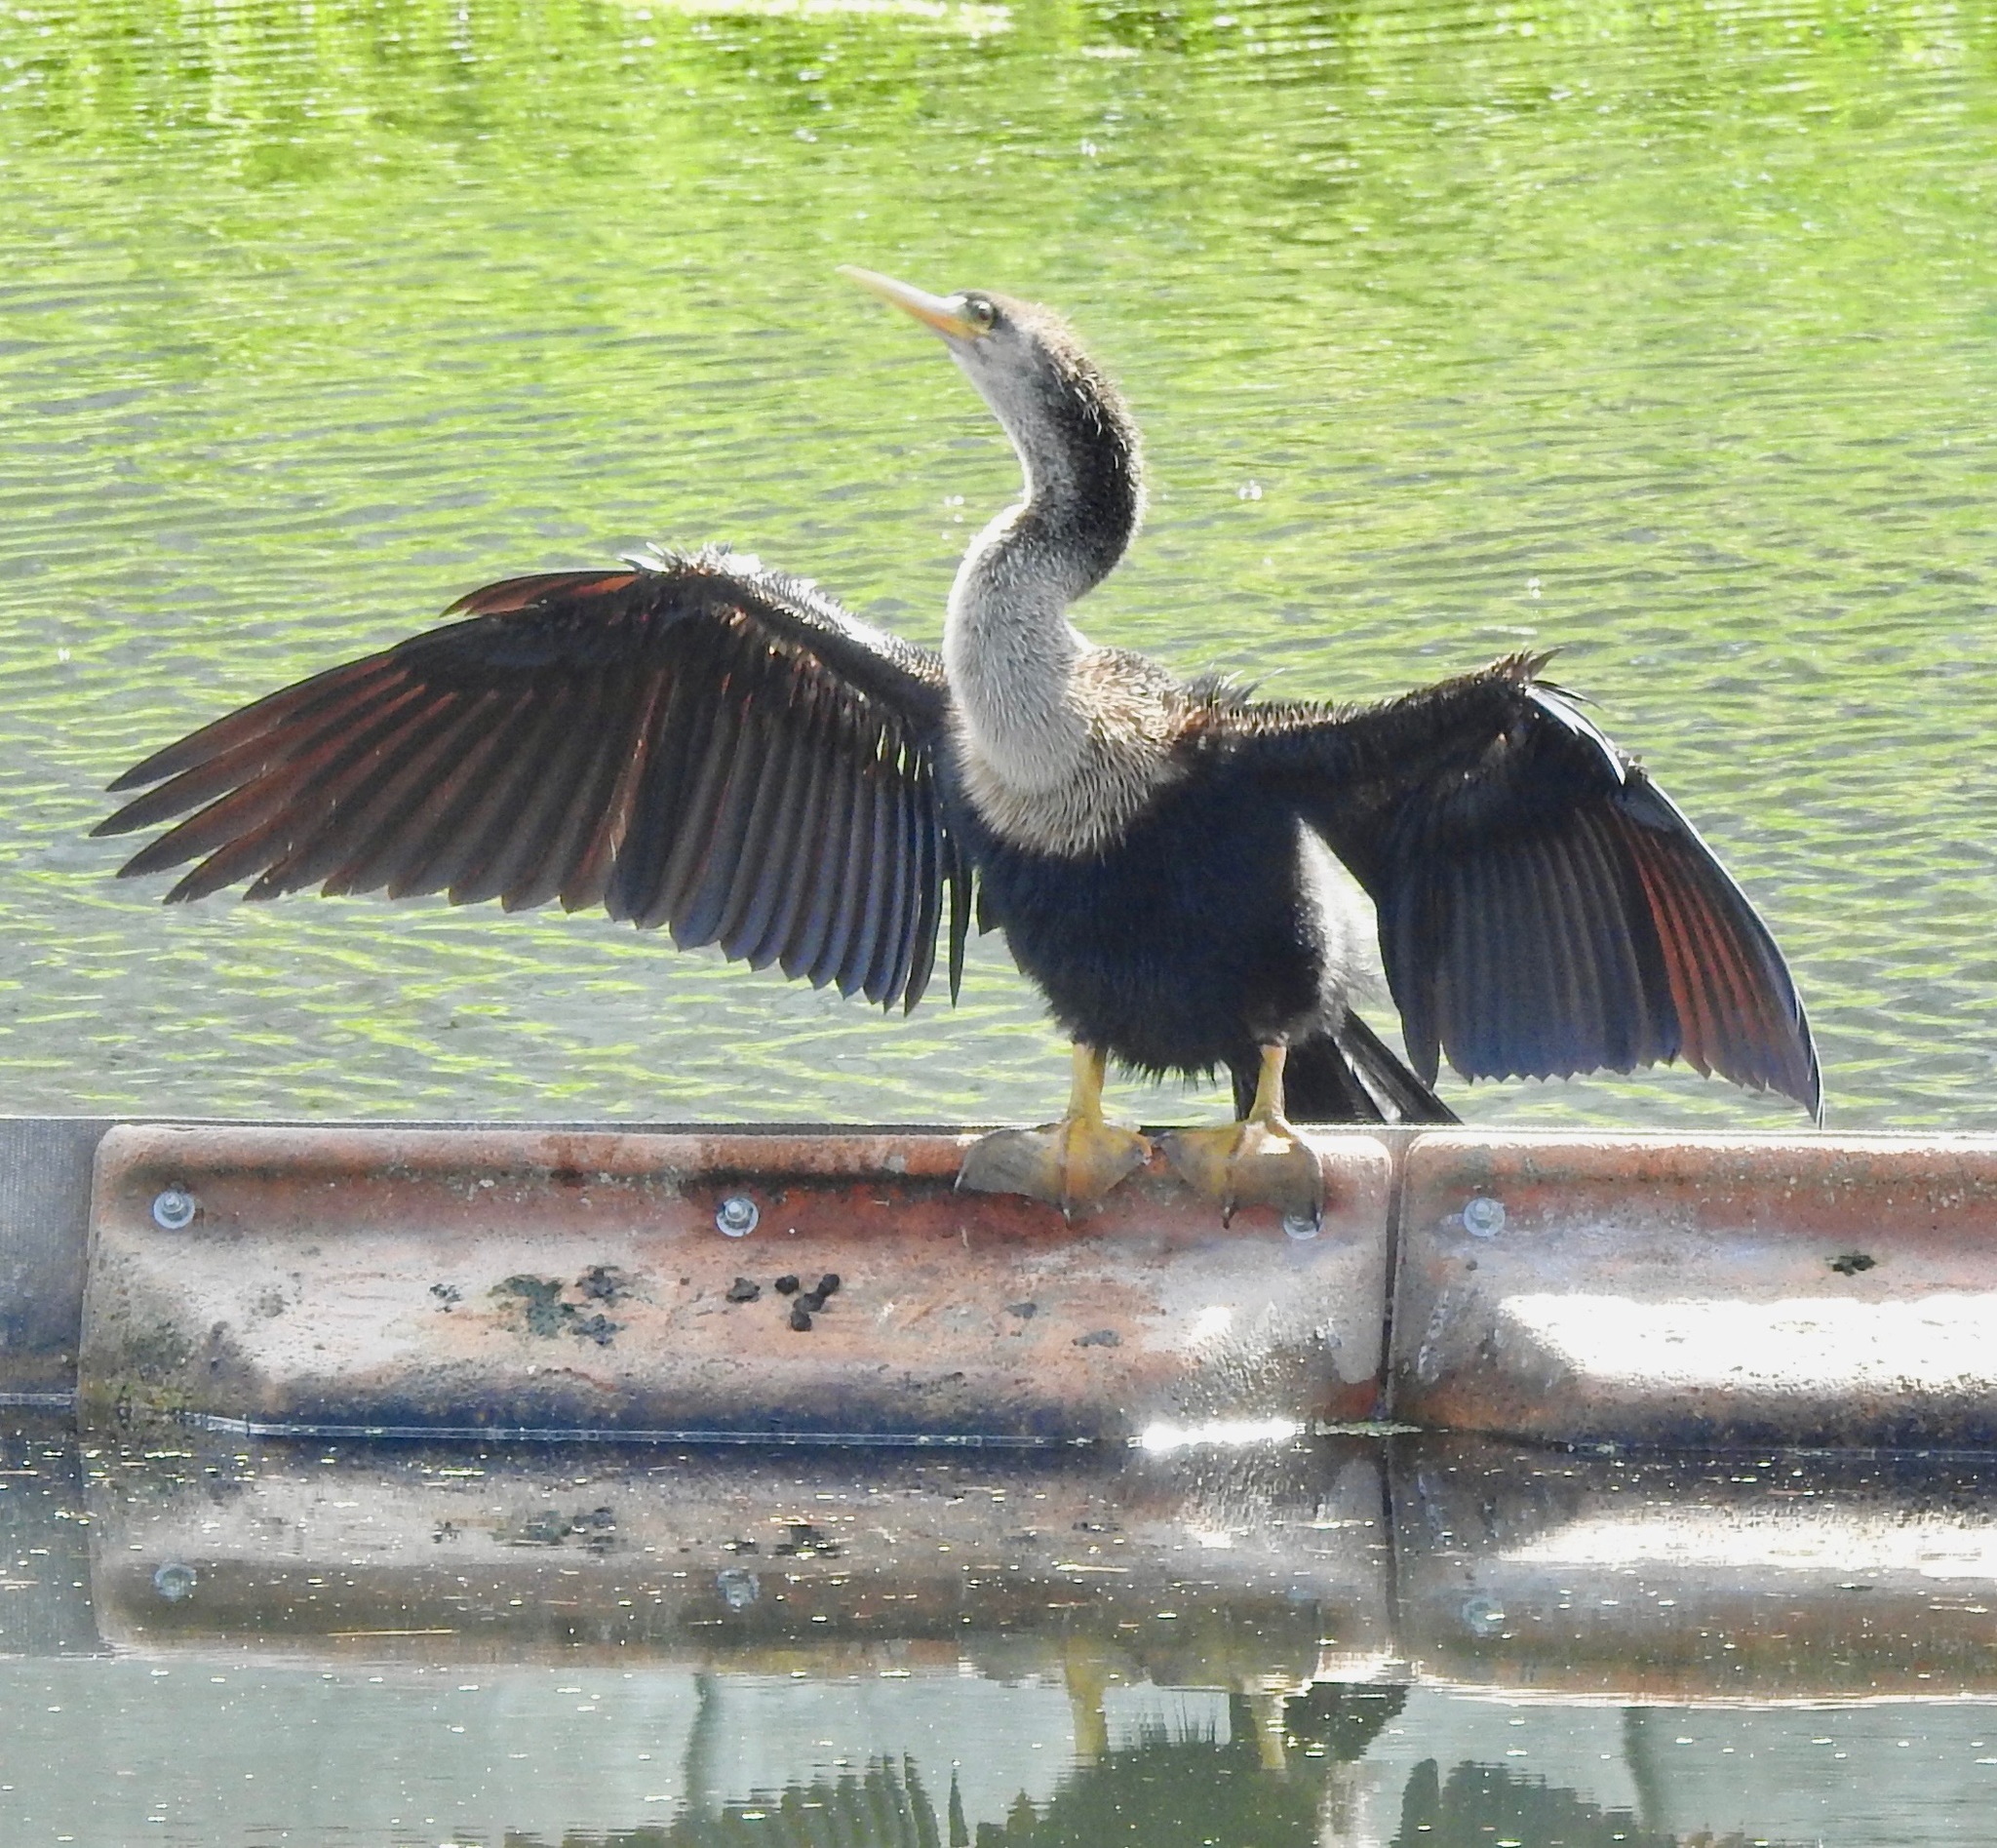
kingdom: Animalia
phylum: Chordata
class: Aves
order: Suliformes
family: Anhingidae
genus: Anhinga
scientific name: Anhinga anhinga
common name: Anhinga
